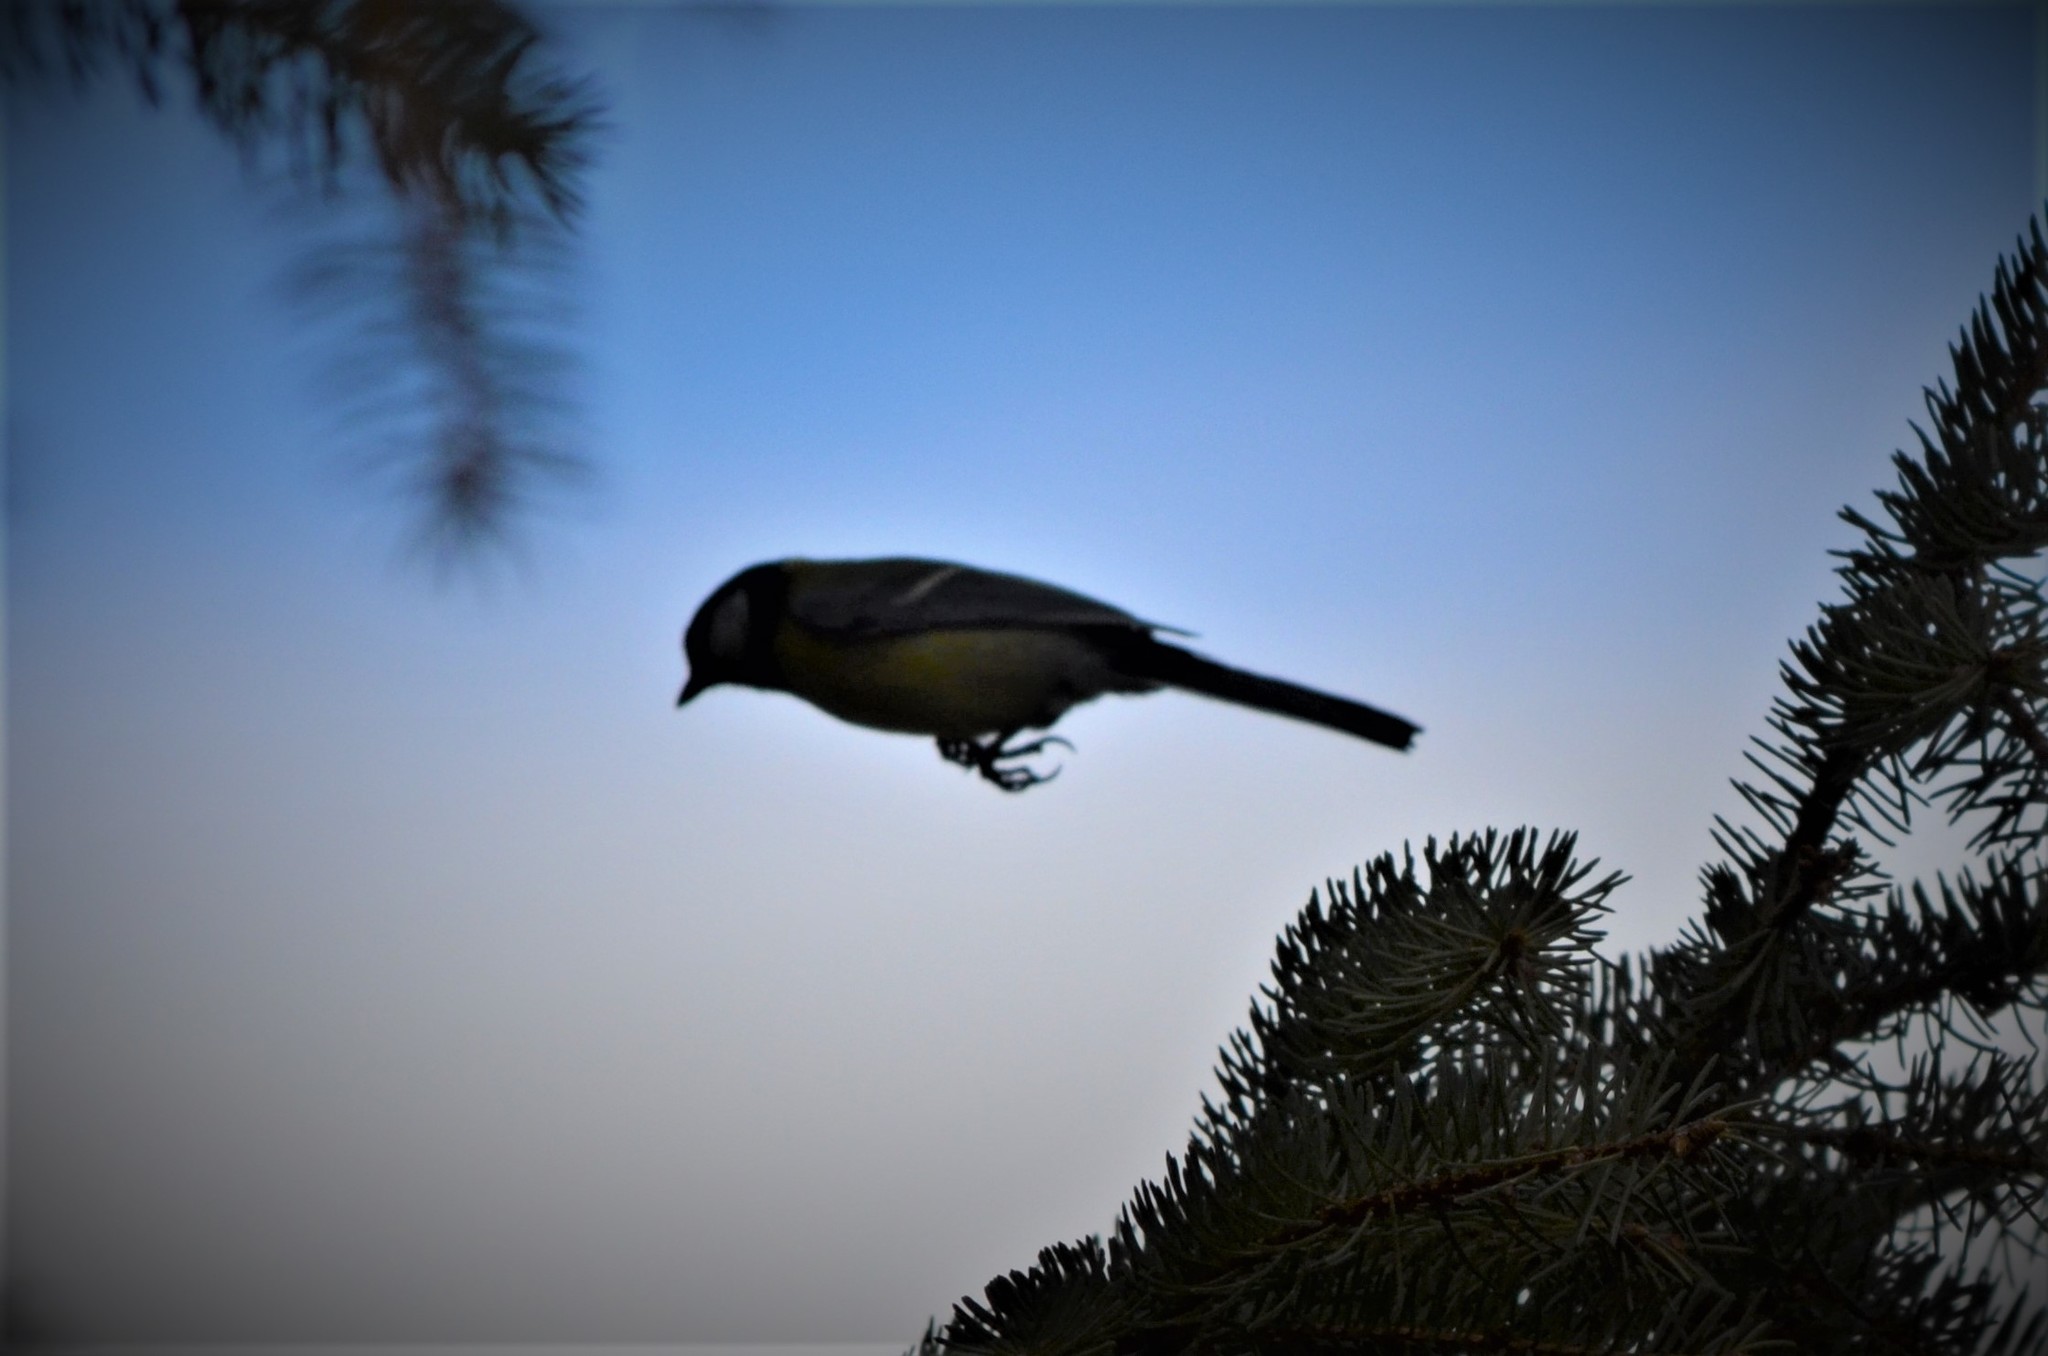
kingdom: Animalia
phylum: Chordata
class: Aves
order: Passeriformes
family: Paridae
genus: Parus
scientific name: Parus major
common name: Great tit
